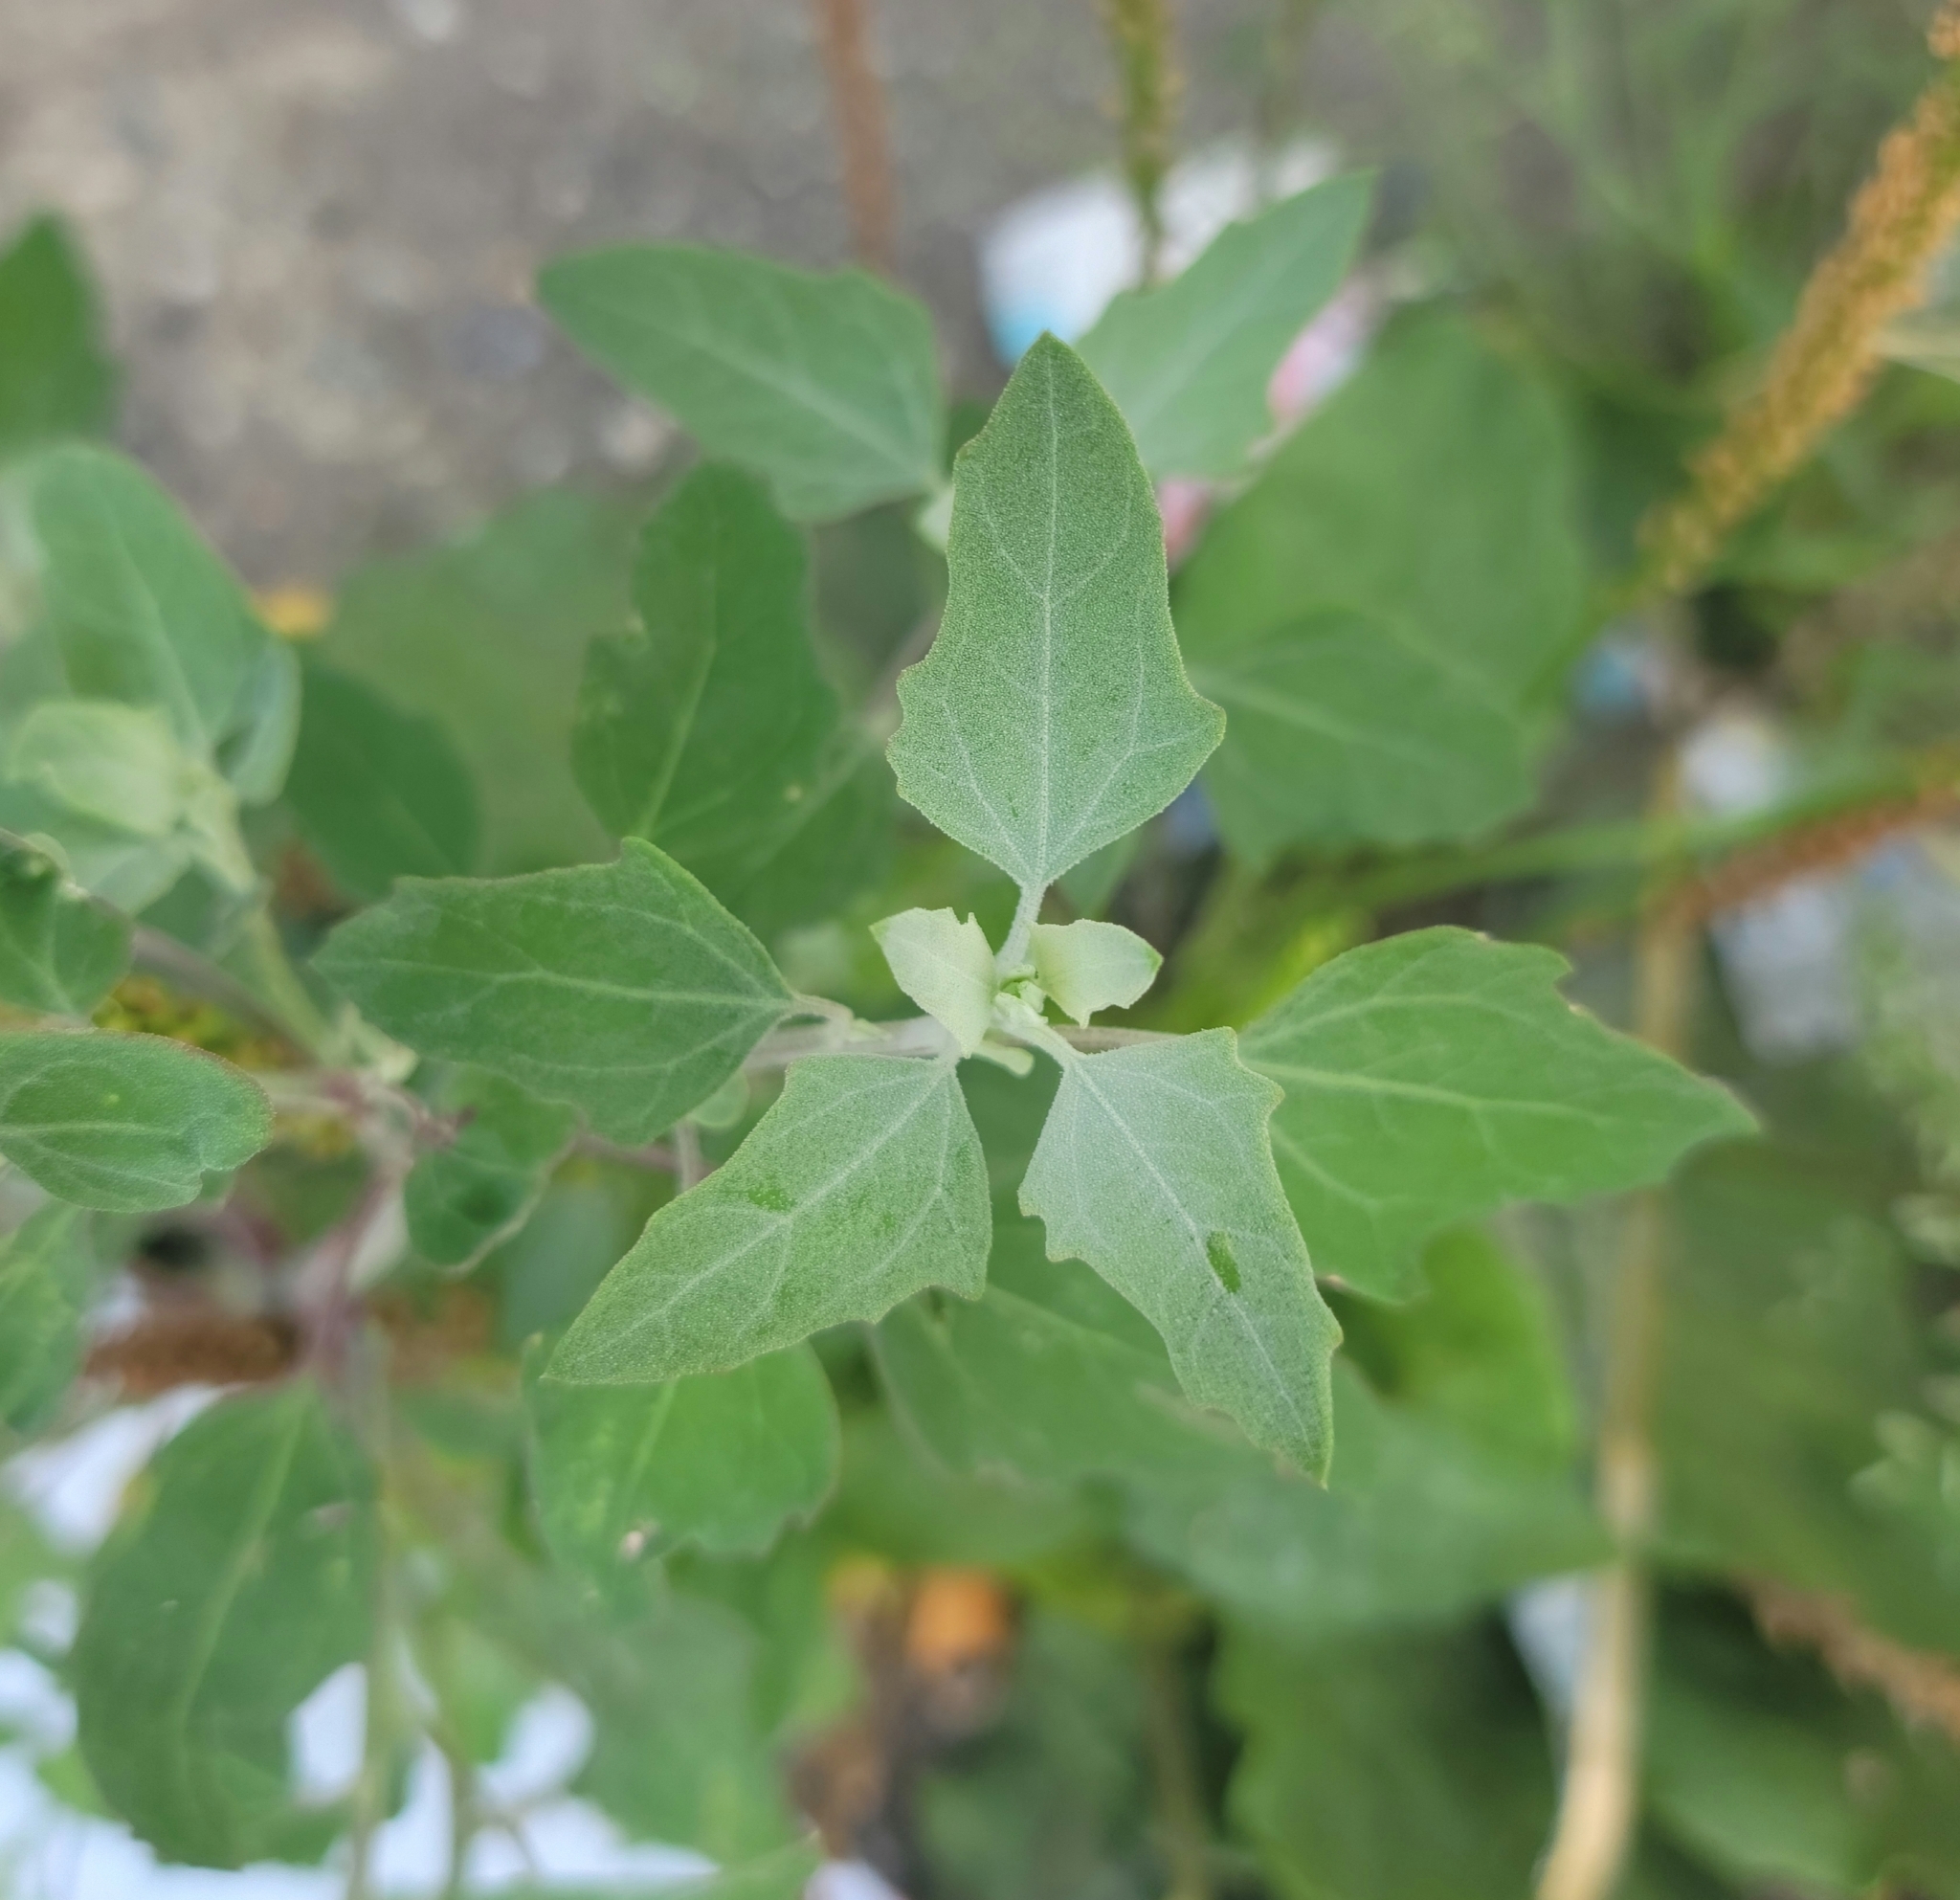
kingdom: Plantae
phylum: Tracheophyta
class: Magnoliopsida
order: Caryophyllales
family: Amaranthaceae
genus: Chenopodium
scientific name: Chenopodium album
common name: Fat-hen
